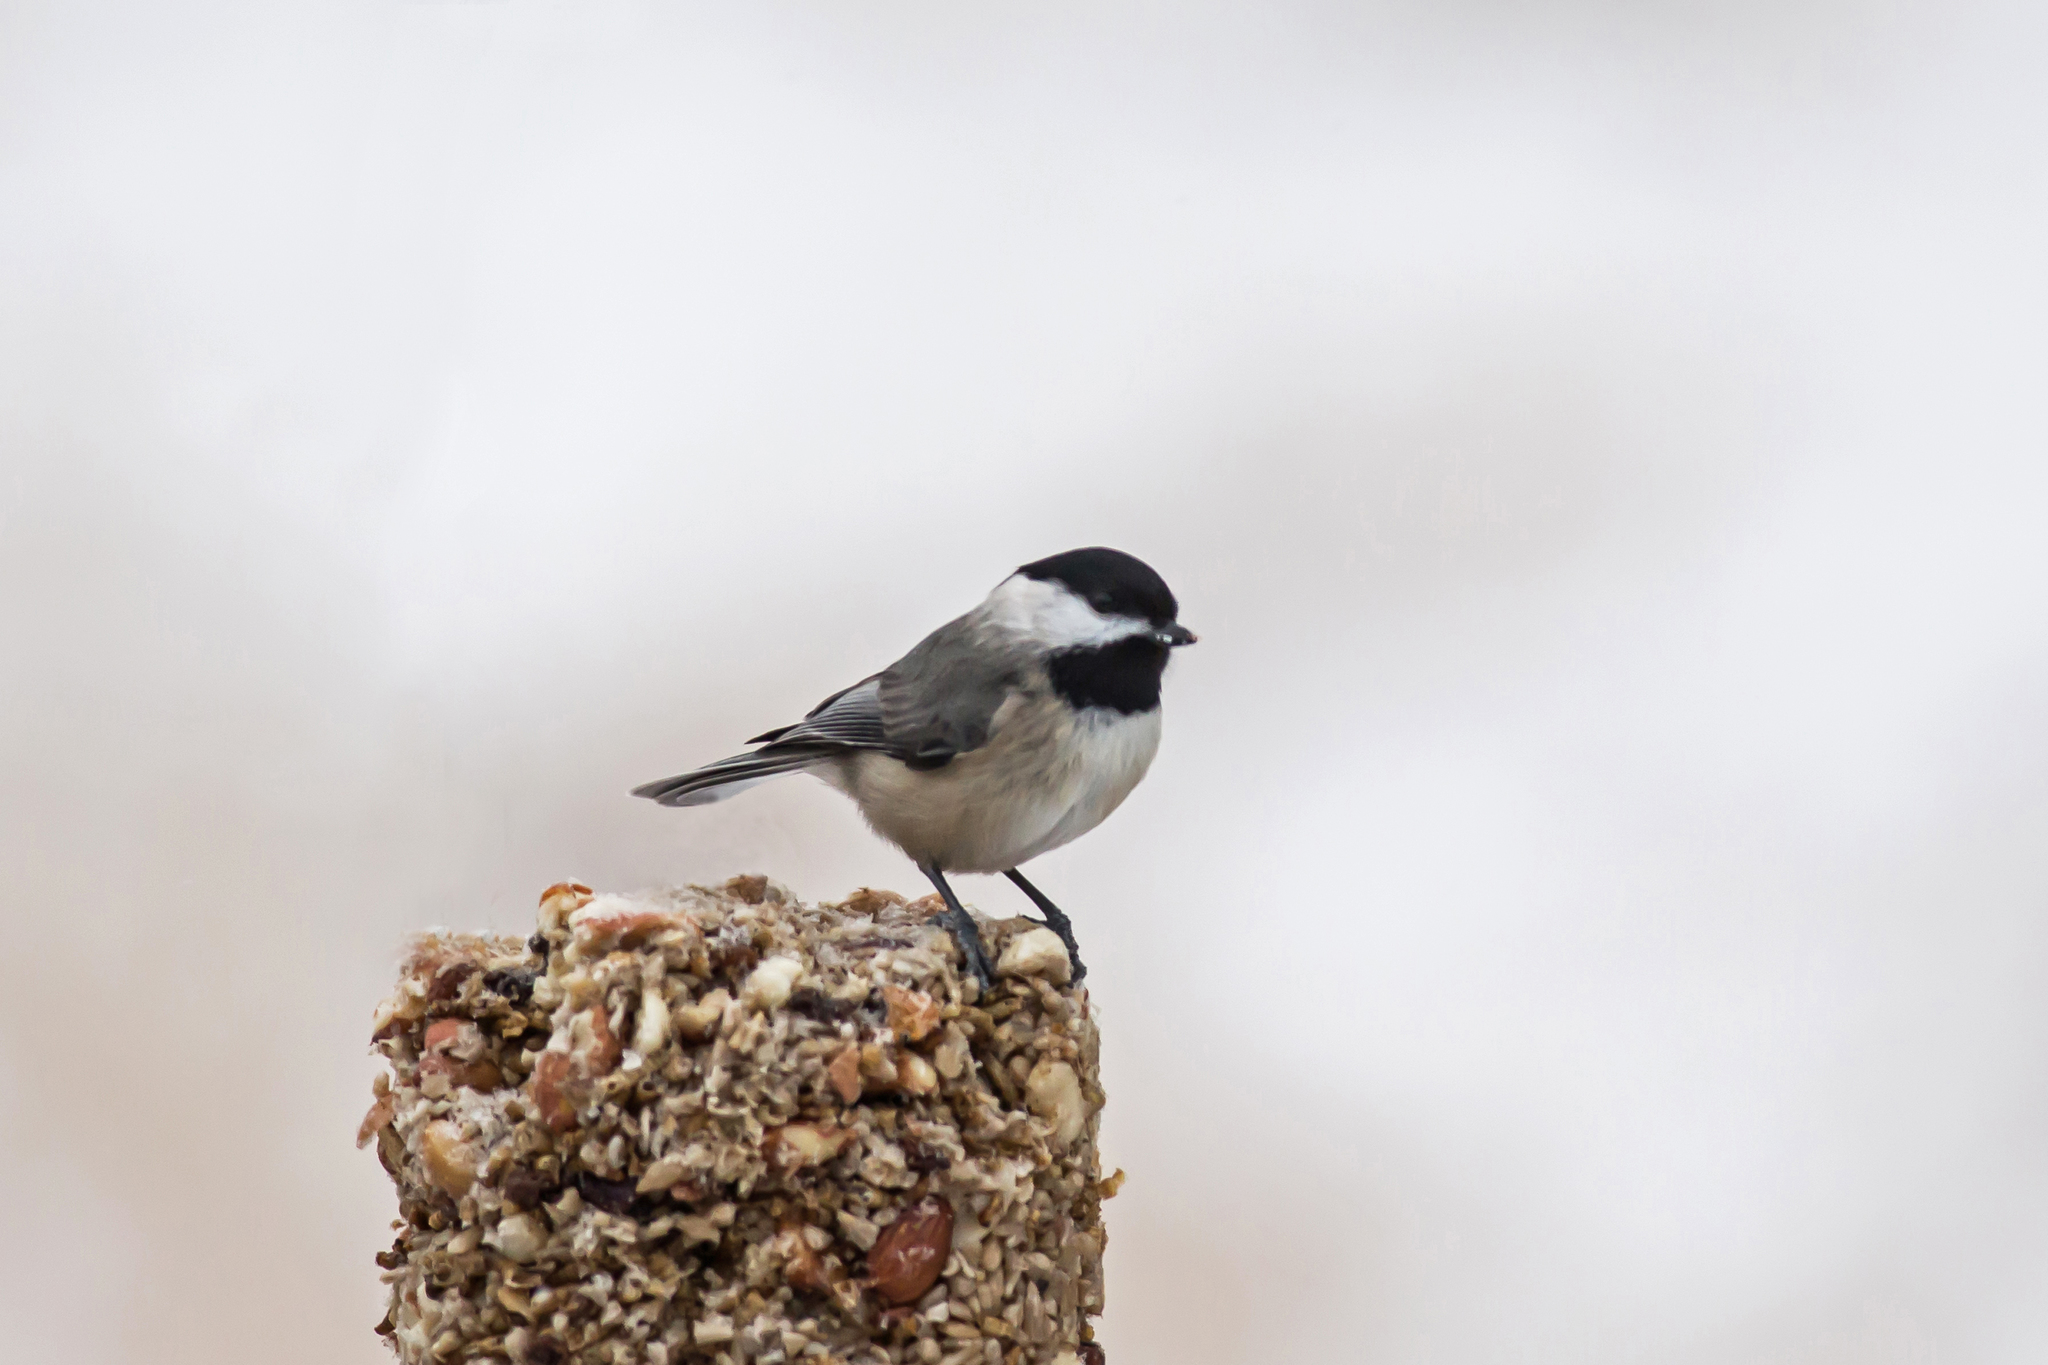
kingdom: Animalia
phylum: Chordata
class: Aves
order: Passeriformes
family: Paridae
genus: Poecile
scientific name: Poecile carolinensis
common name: Carolina chickadee
